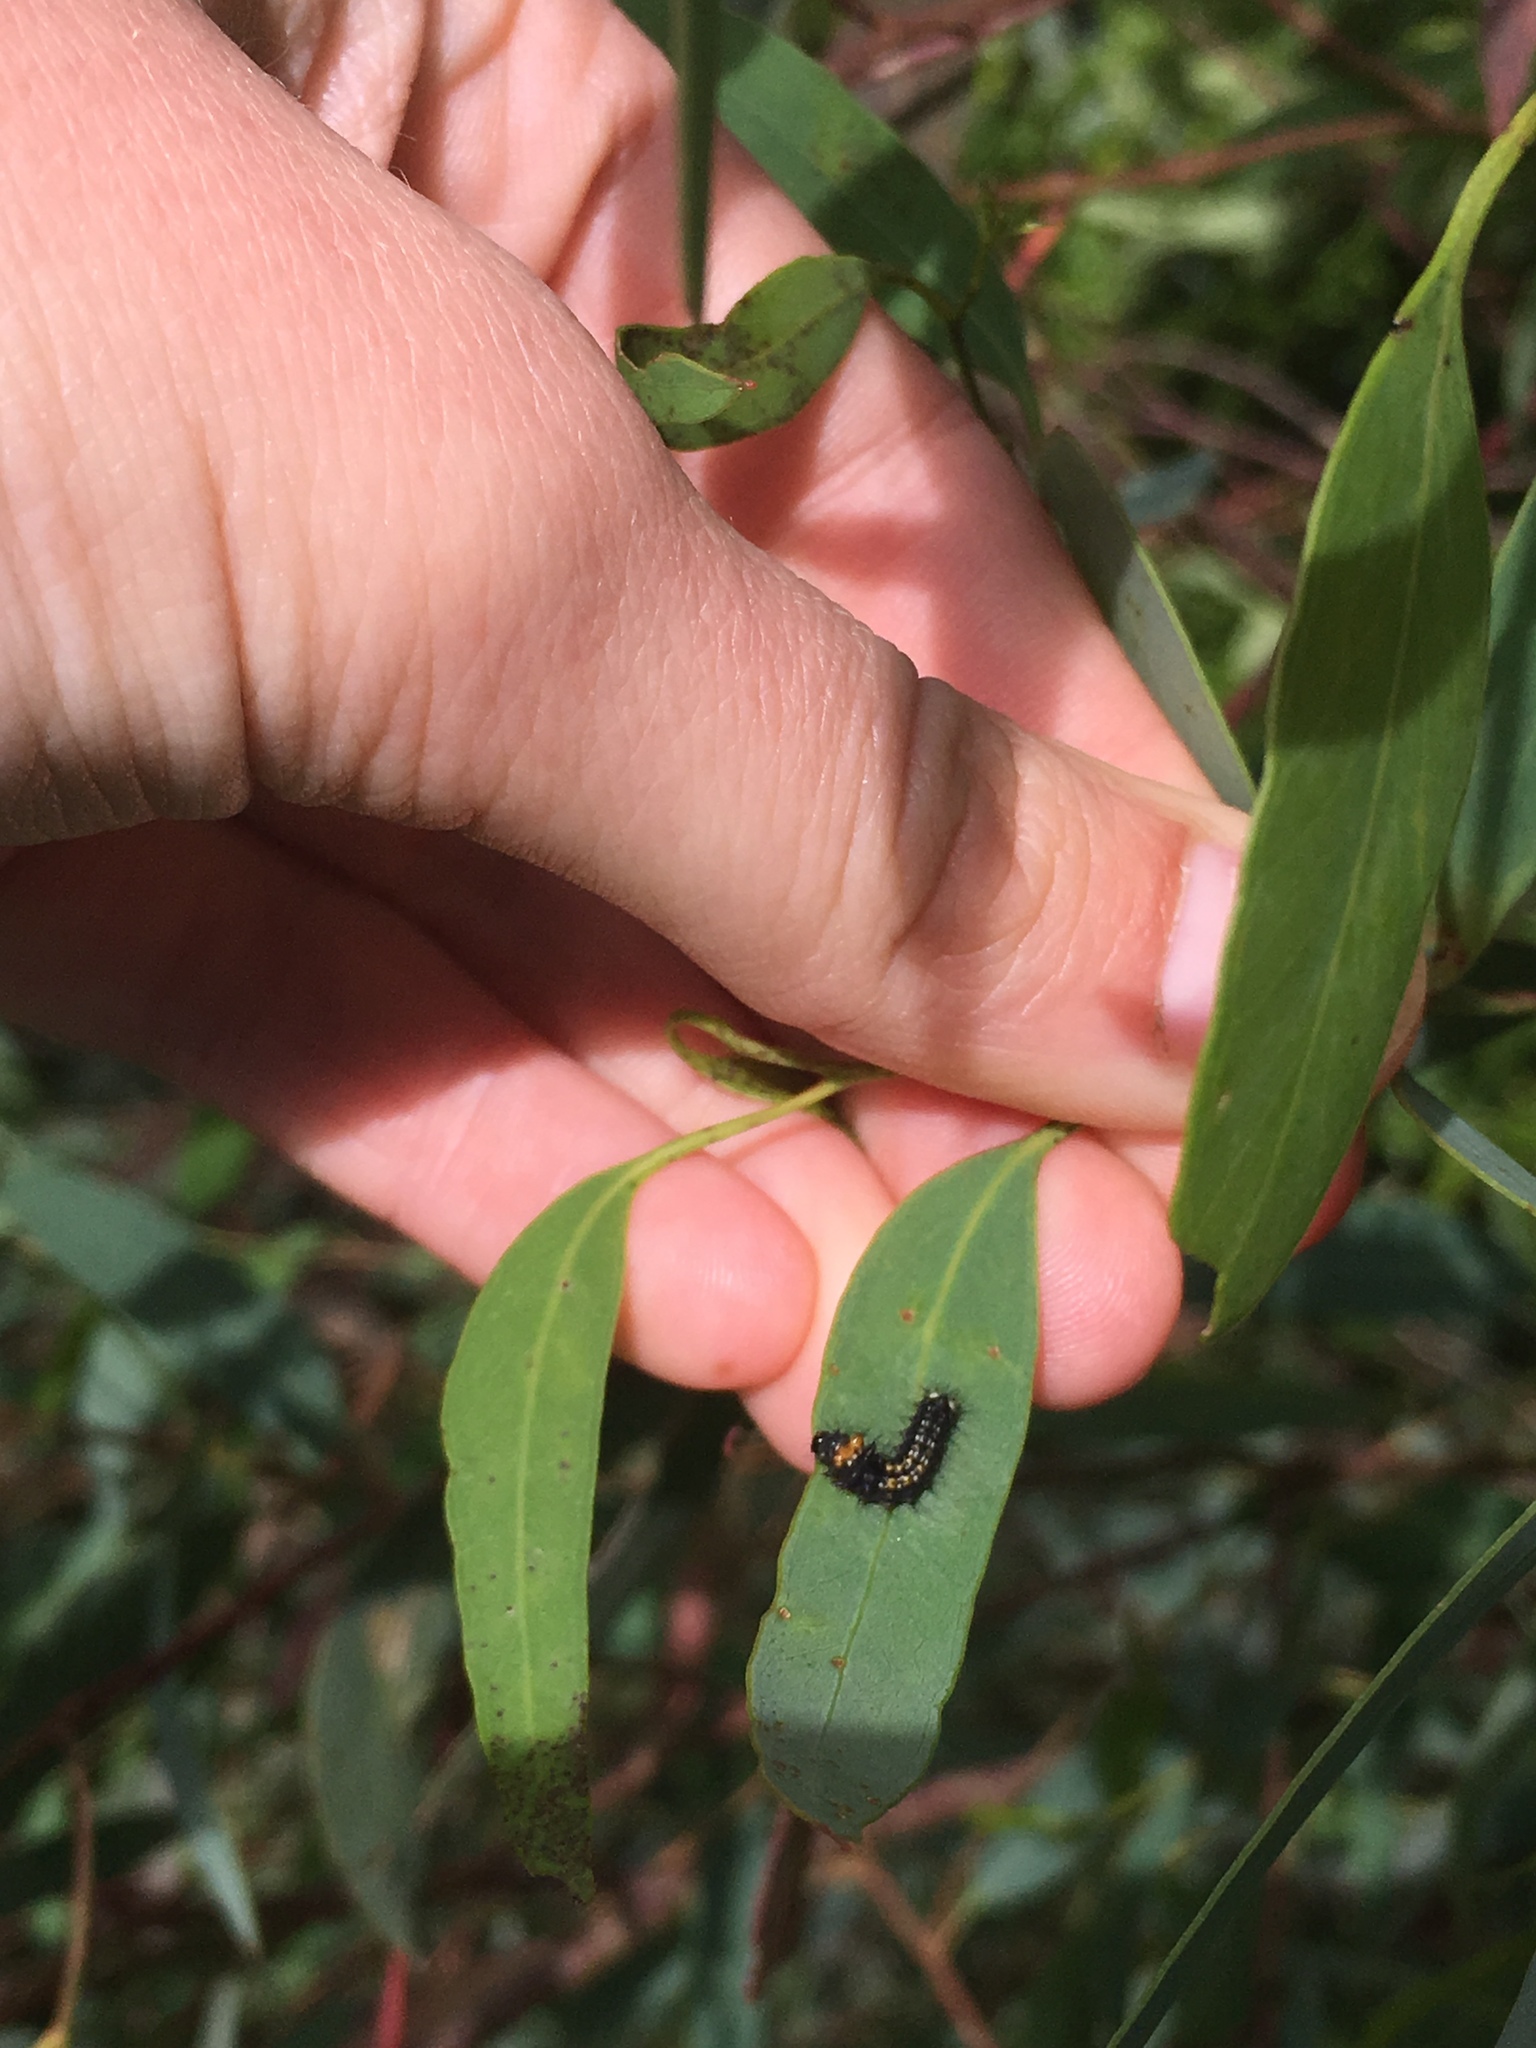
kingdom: Animalia
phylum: Arthropoda
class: Insecta
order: Lepidoptera
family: Saturniidae
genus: Opodiphthera
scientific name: Opodiphthera
